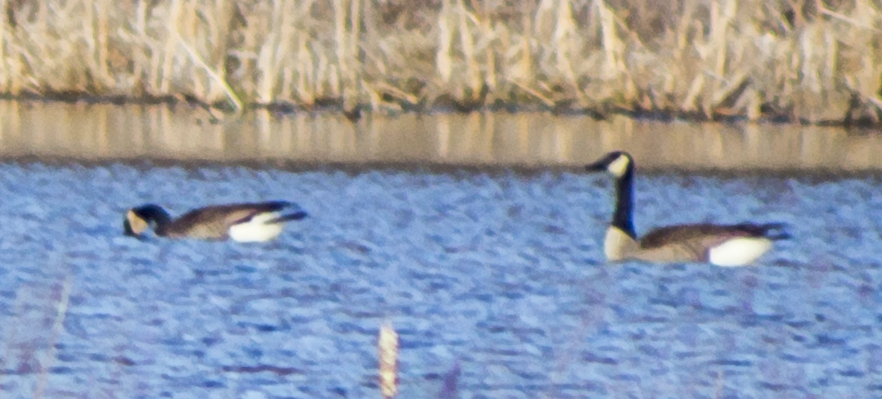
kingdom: Animalia
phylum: Chordata
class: Aves
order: Anseriformes
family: Anatidae
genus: Branta
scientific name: Branta canadensis
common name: Canada goose
